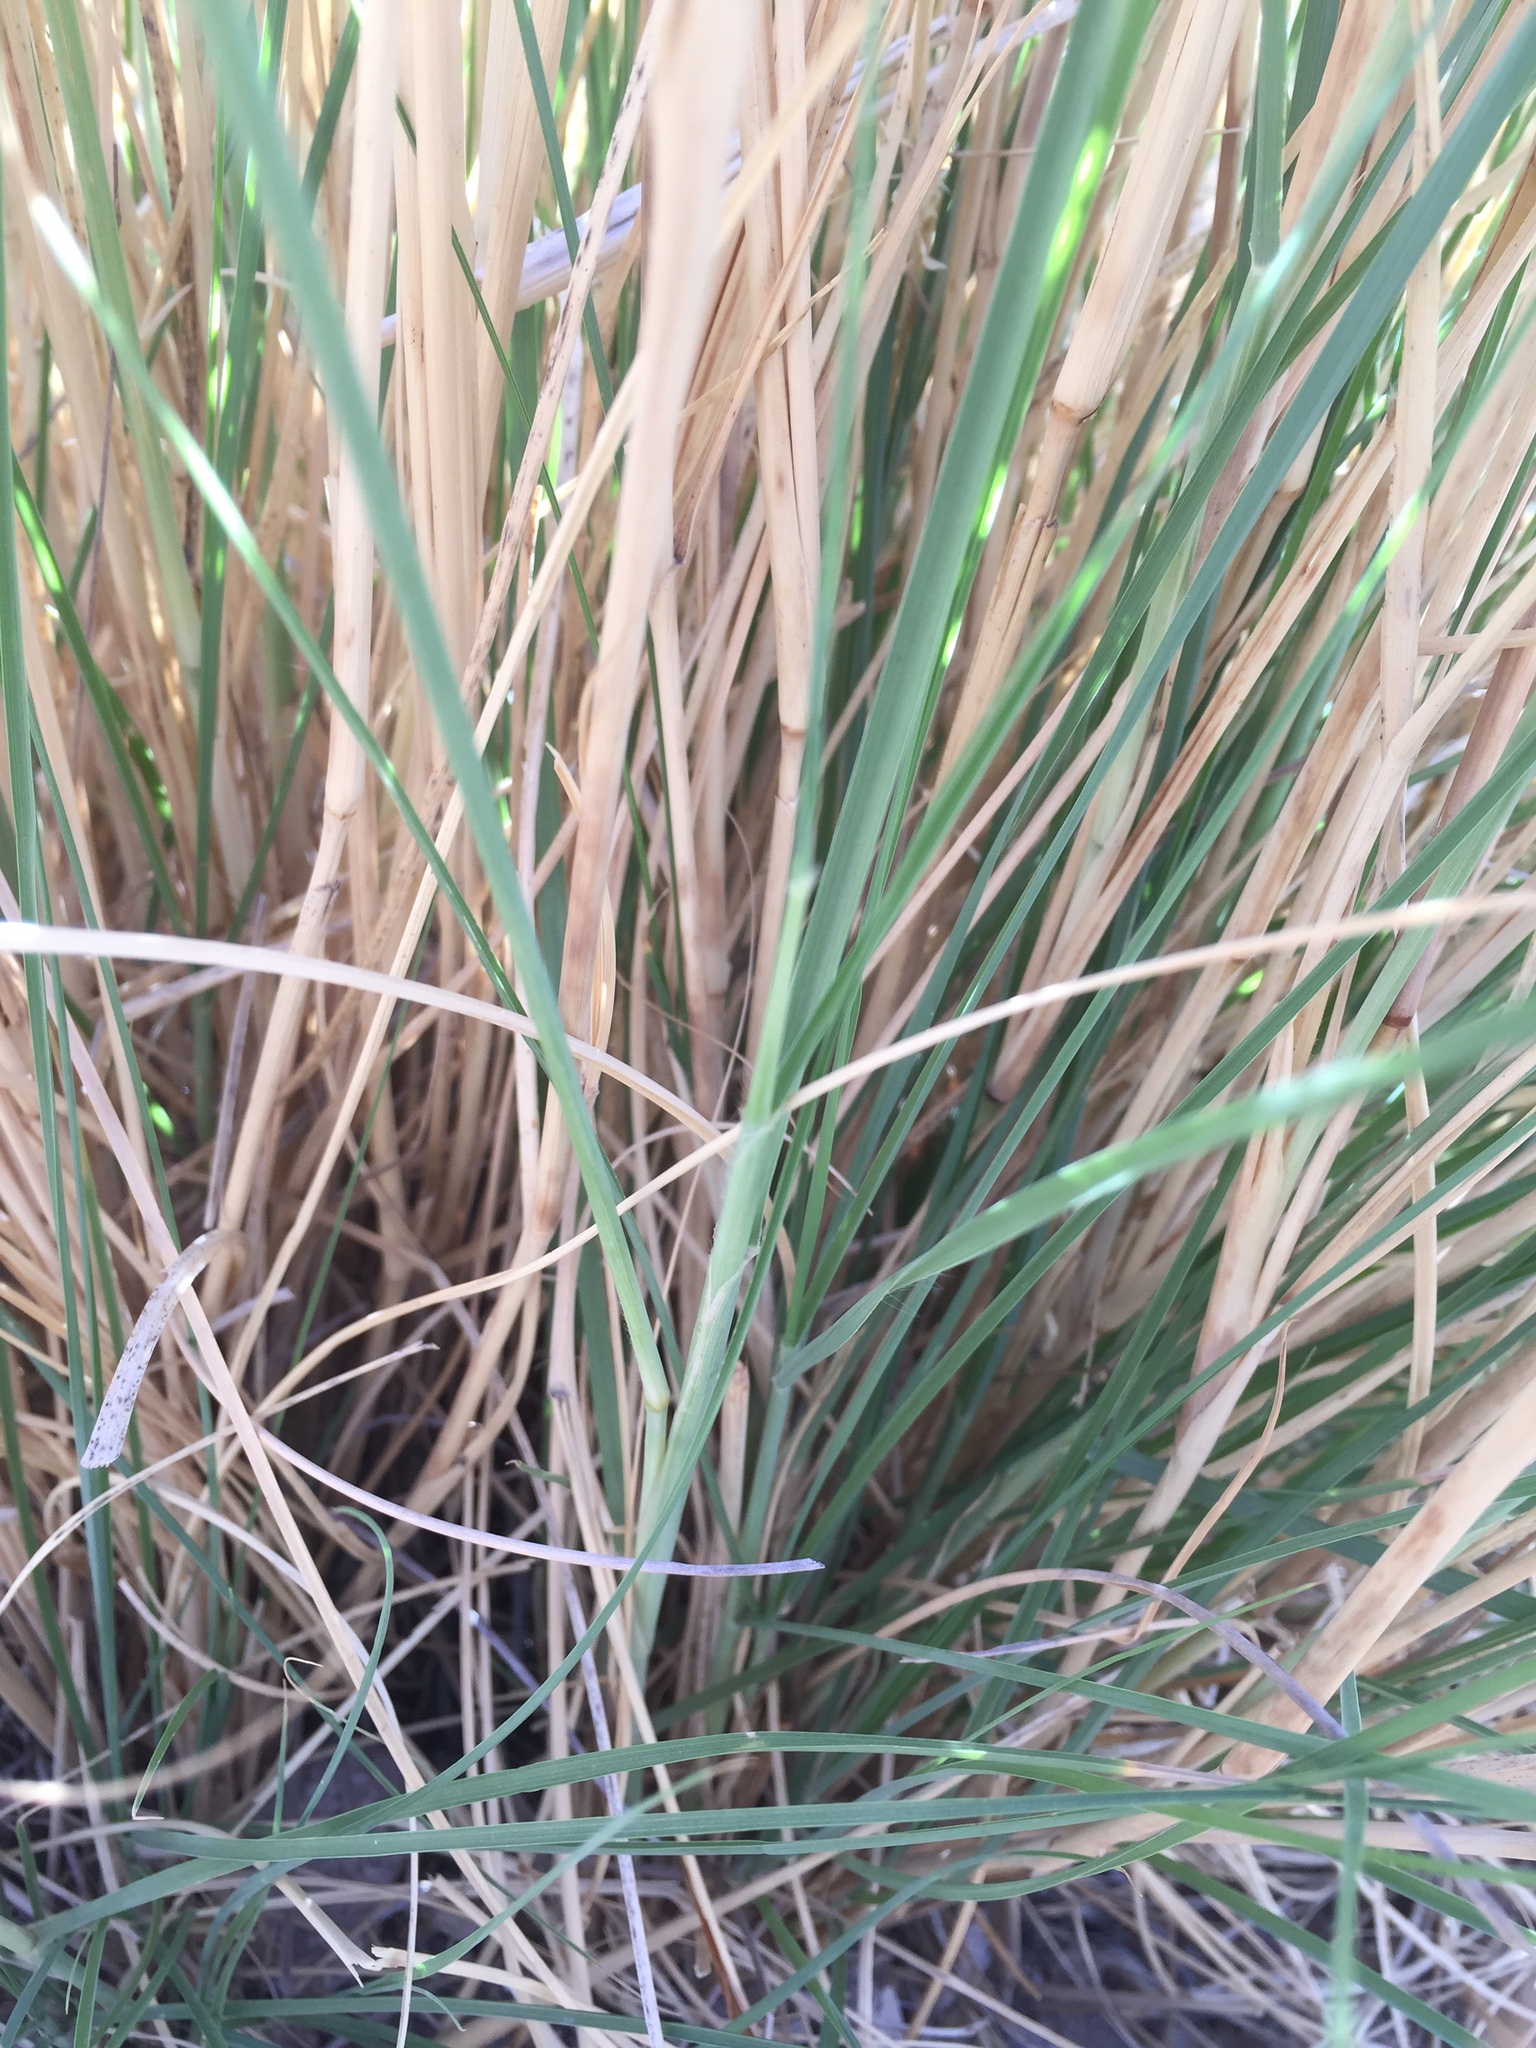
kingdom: Plantae
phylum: Tracheophyta
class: Liliopsida
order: Poales
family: Poaceae
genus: Cenchrus
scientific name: Cenchrus setaceus
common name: Crimson fountaingrass
